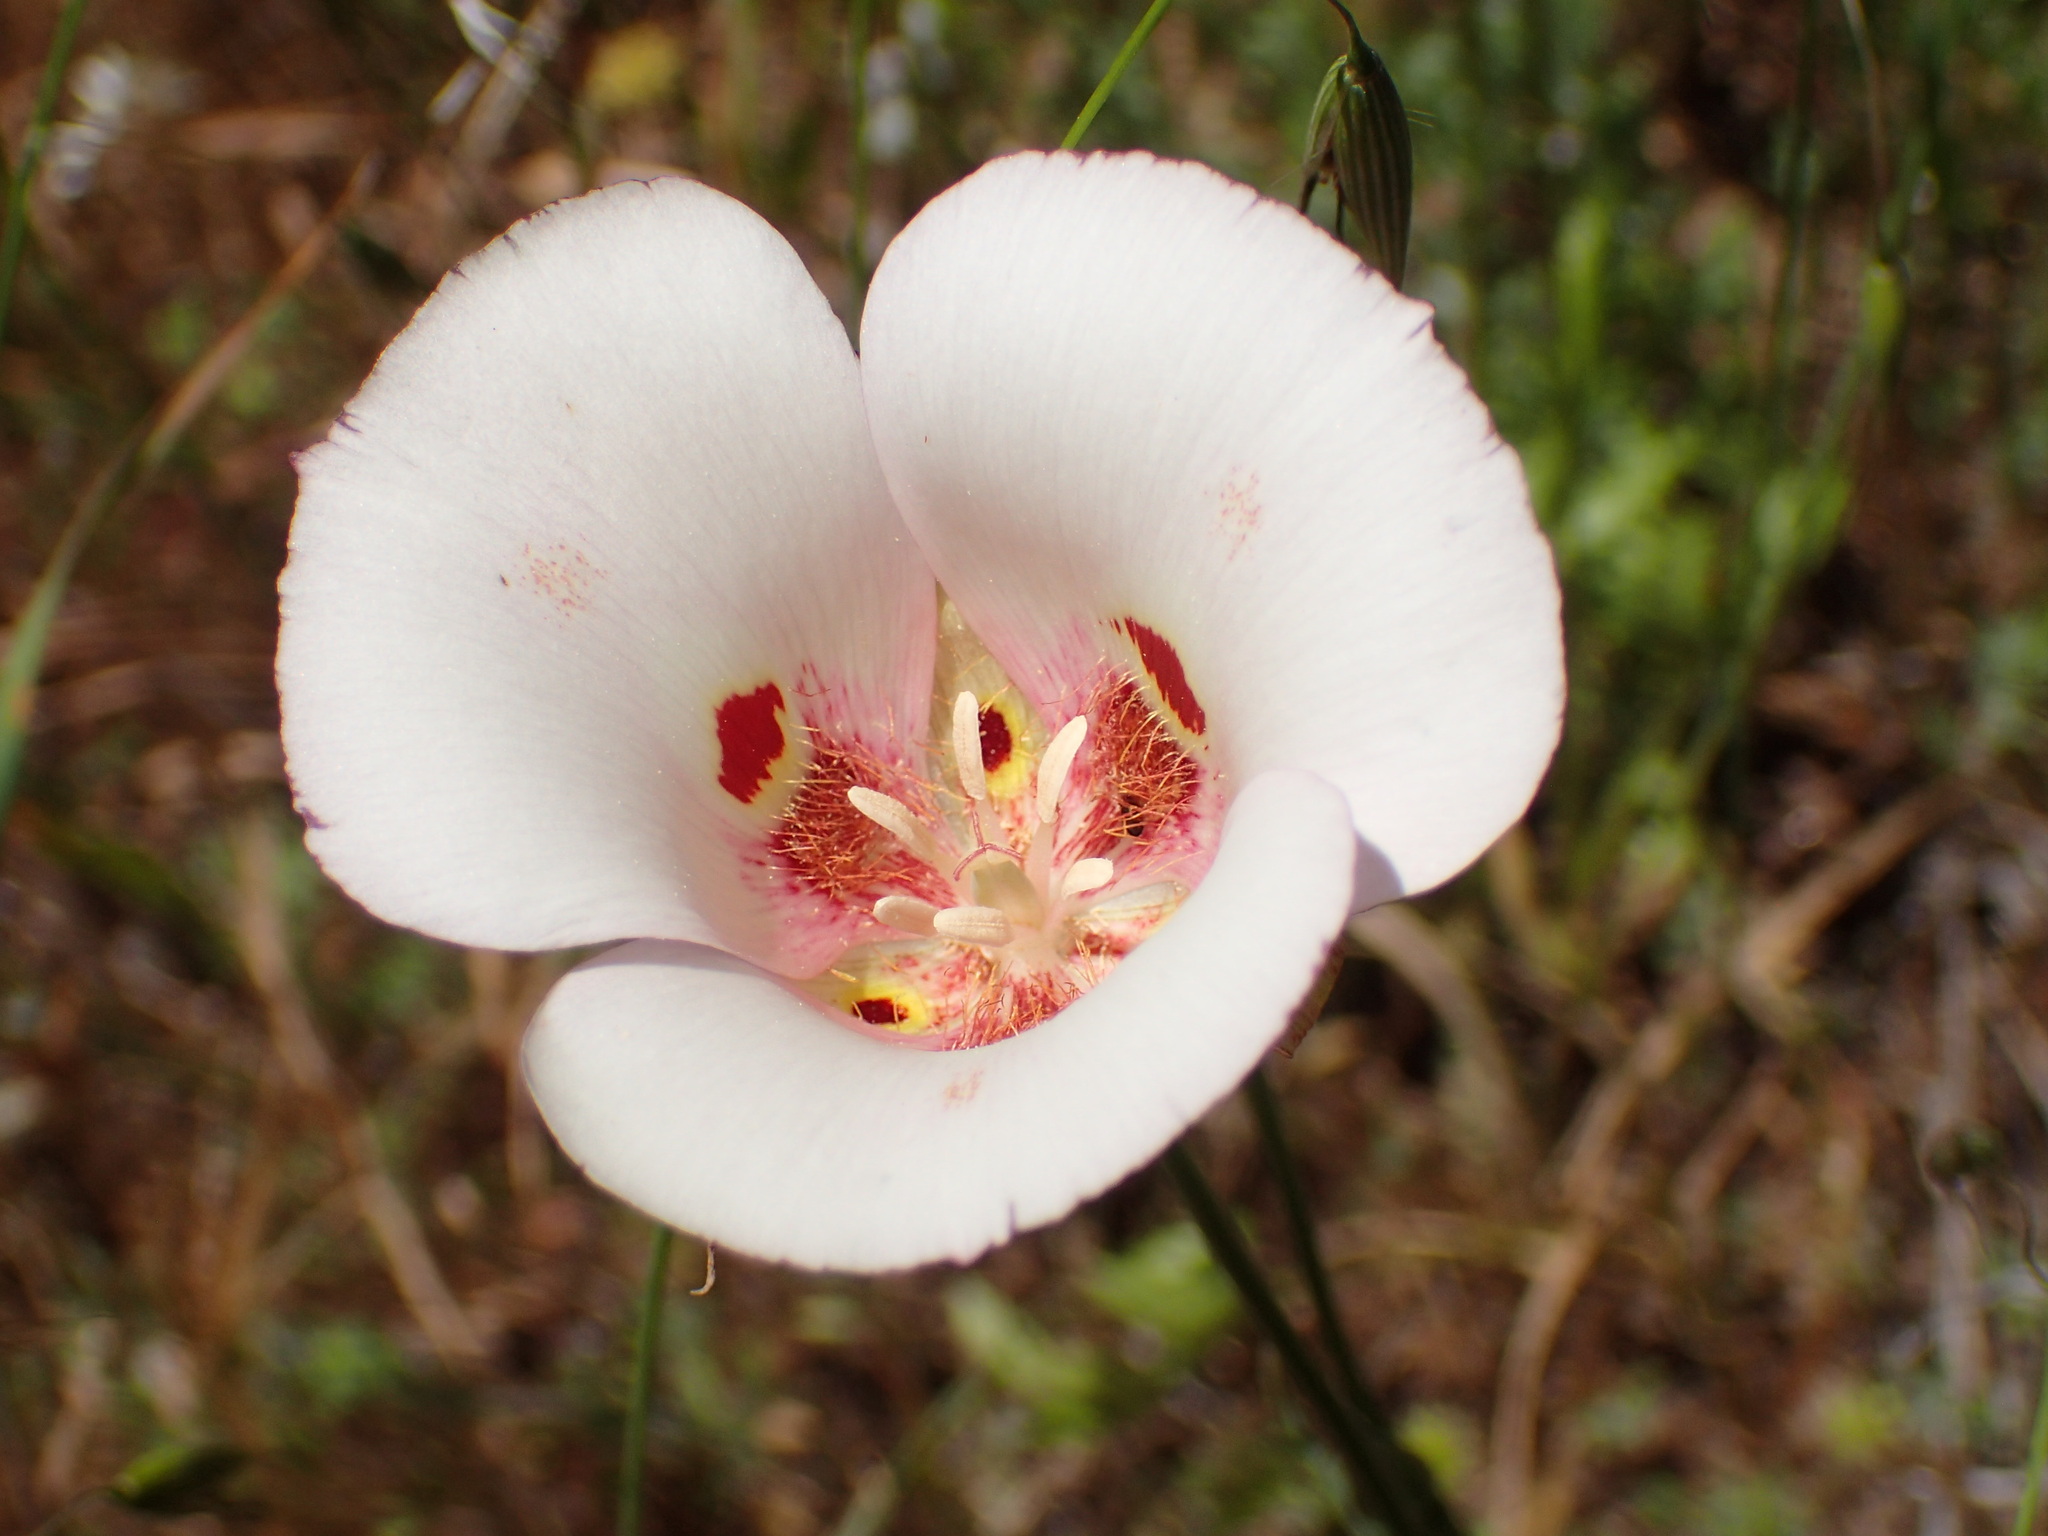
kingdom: Plantae
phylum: Tracheophyta
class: Liliopsida
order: Liliales
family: Liliaceae
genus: Calochortus
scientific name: Calochortus venustus
